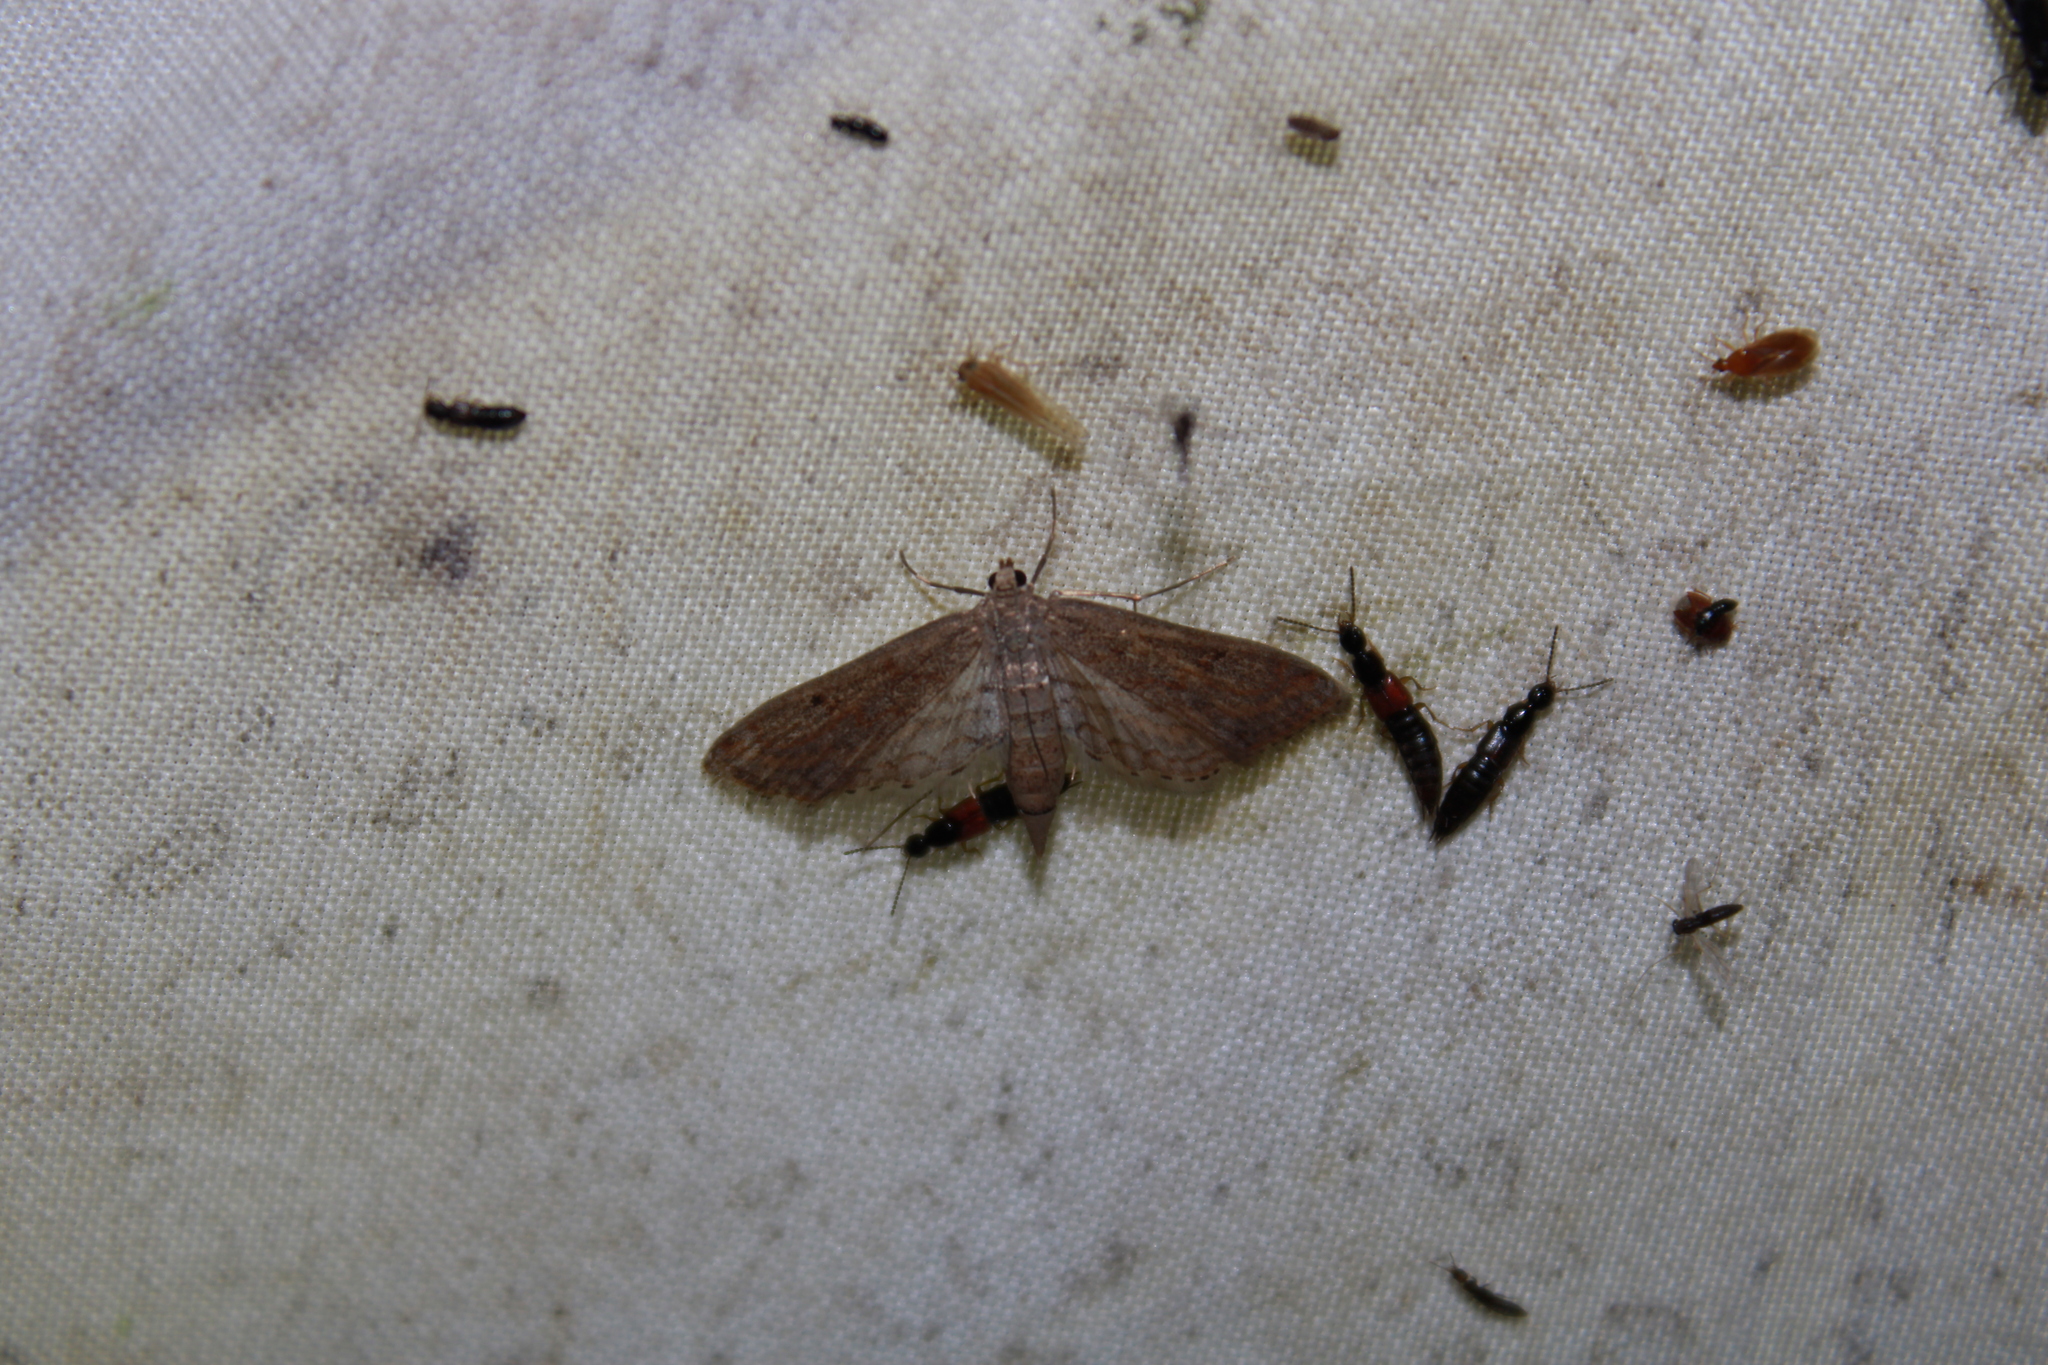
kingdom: Animalia
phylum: Arthropoda
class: Insecta
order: Lepidoptera
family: Crambidae
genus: Parapoynx
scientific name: Parapoynx allionealis
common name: Bladderwort casemaker
